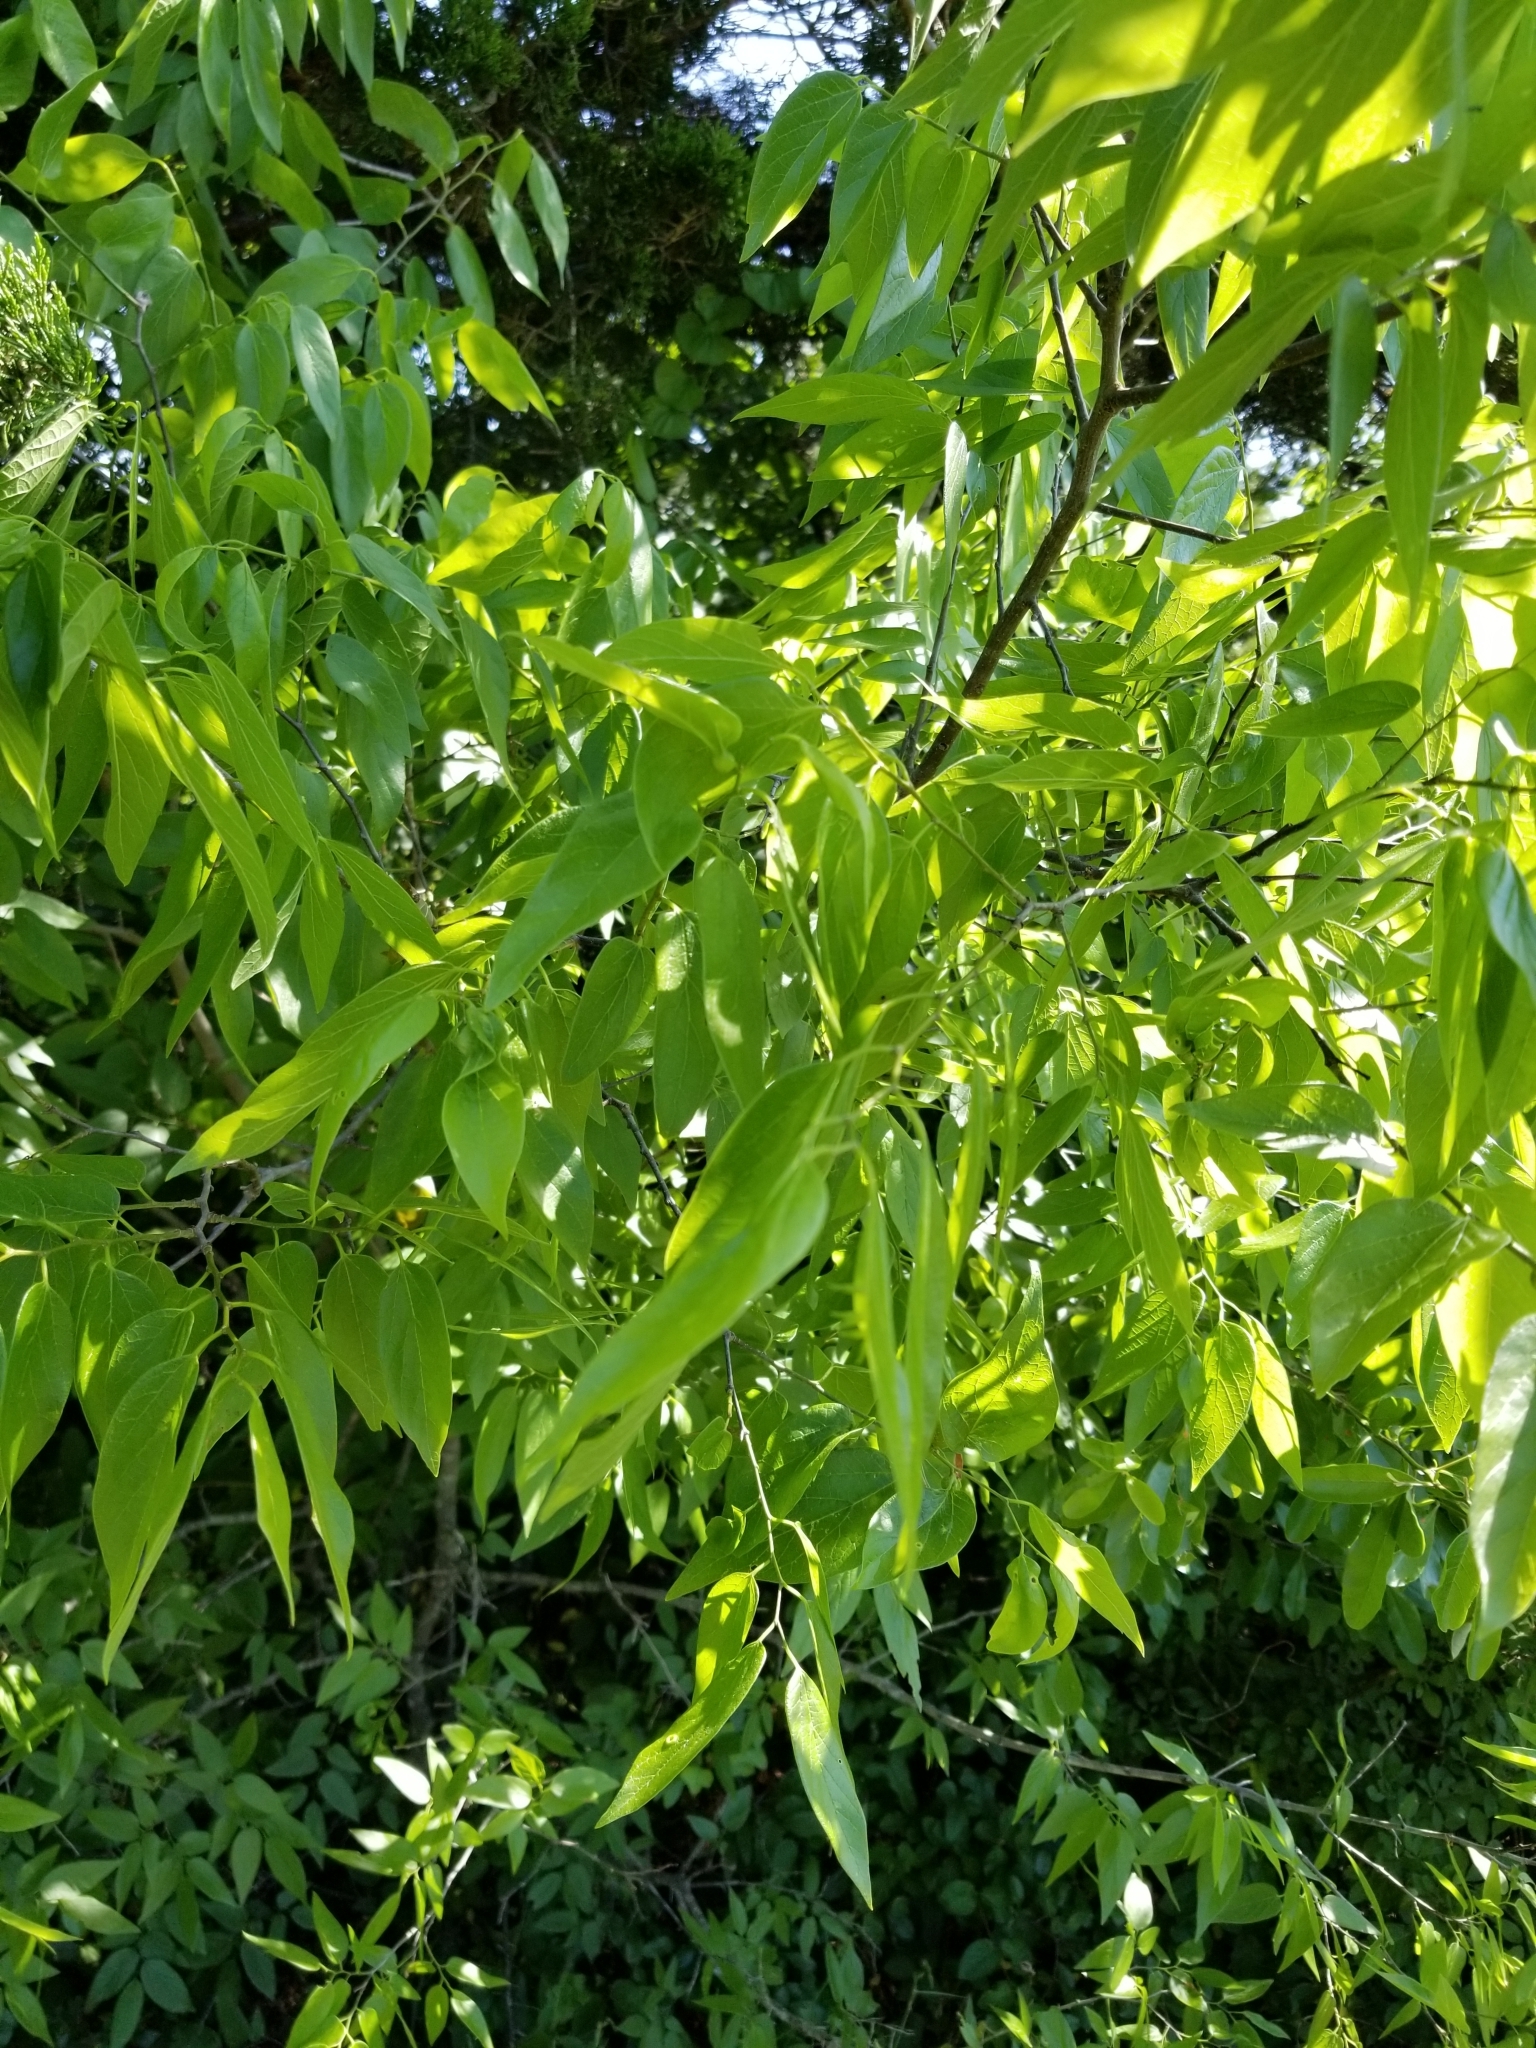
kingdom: Plantae
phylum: Tracheophyta
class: Magnoliopsida
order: Rosales
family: Cannabaceae
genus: Celtis
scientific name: Celtis laevigata
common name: Sugarberry
